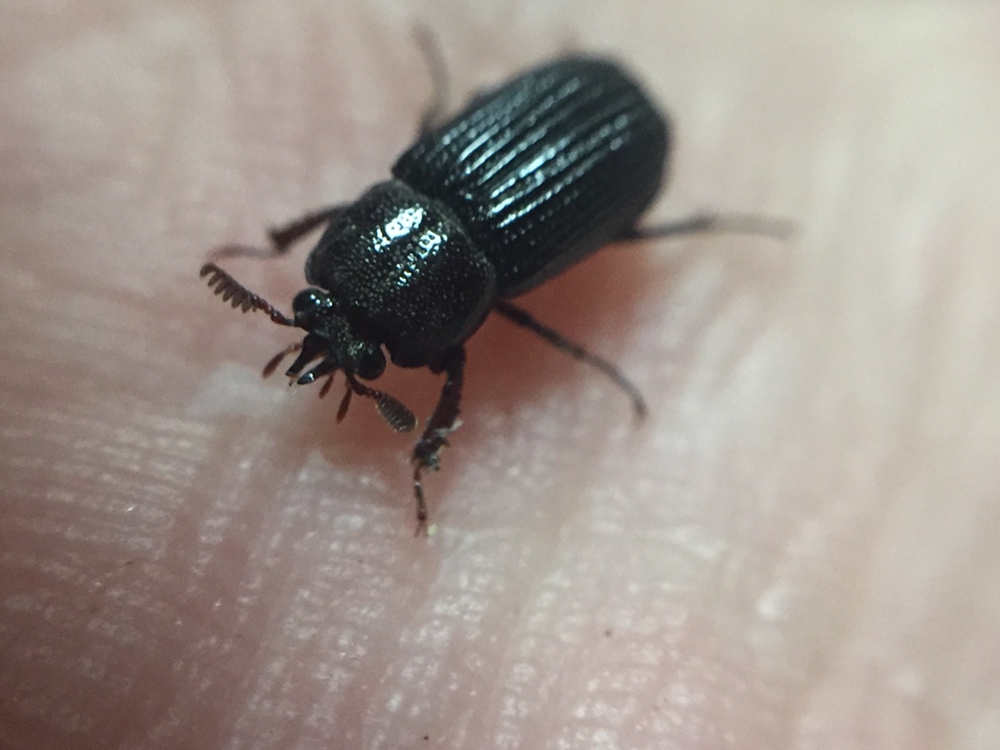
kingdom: Animalia
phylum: Arthropoda
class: Insecta
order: Coleoptera
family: Lucanidae
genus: Syndesus
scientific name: Syndesus cornutus
